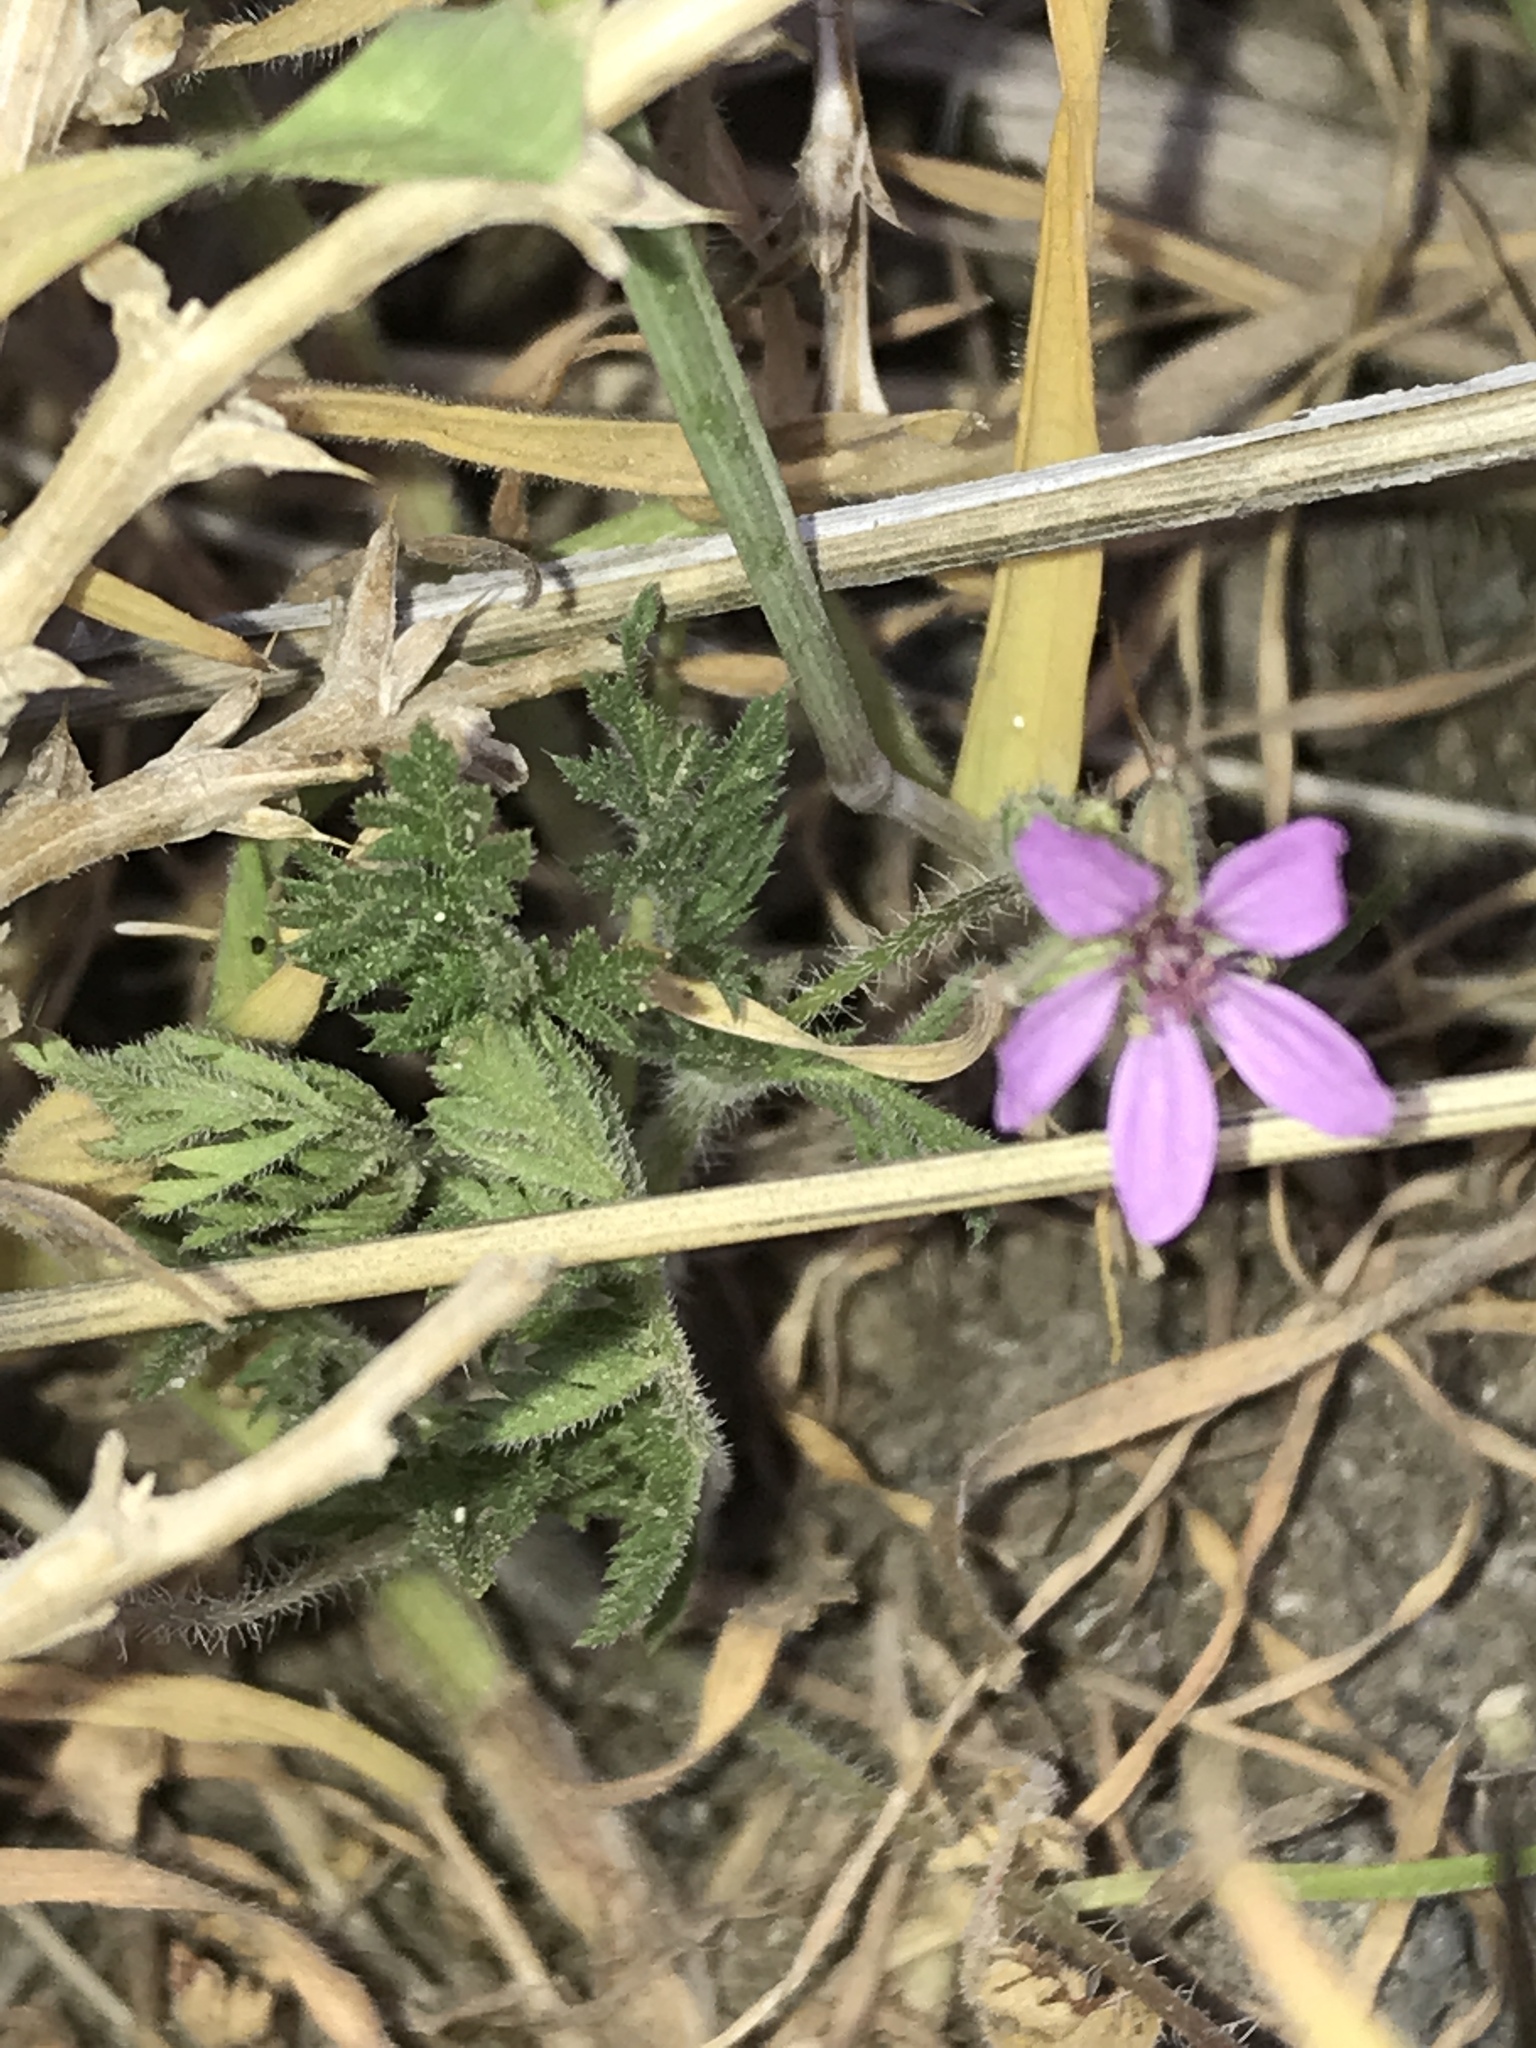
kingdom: Plantae
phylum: Tracheophyta
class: Magnoliopsida
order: Geraniales
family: Geraniaceae
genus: Erodium
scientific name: Erodium cicutarium
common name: Common stork's-bill
